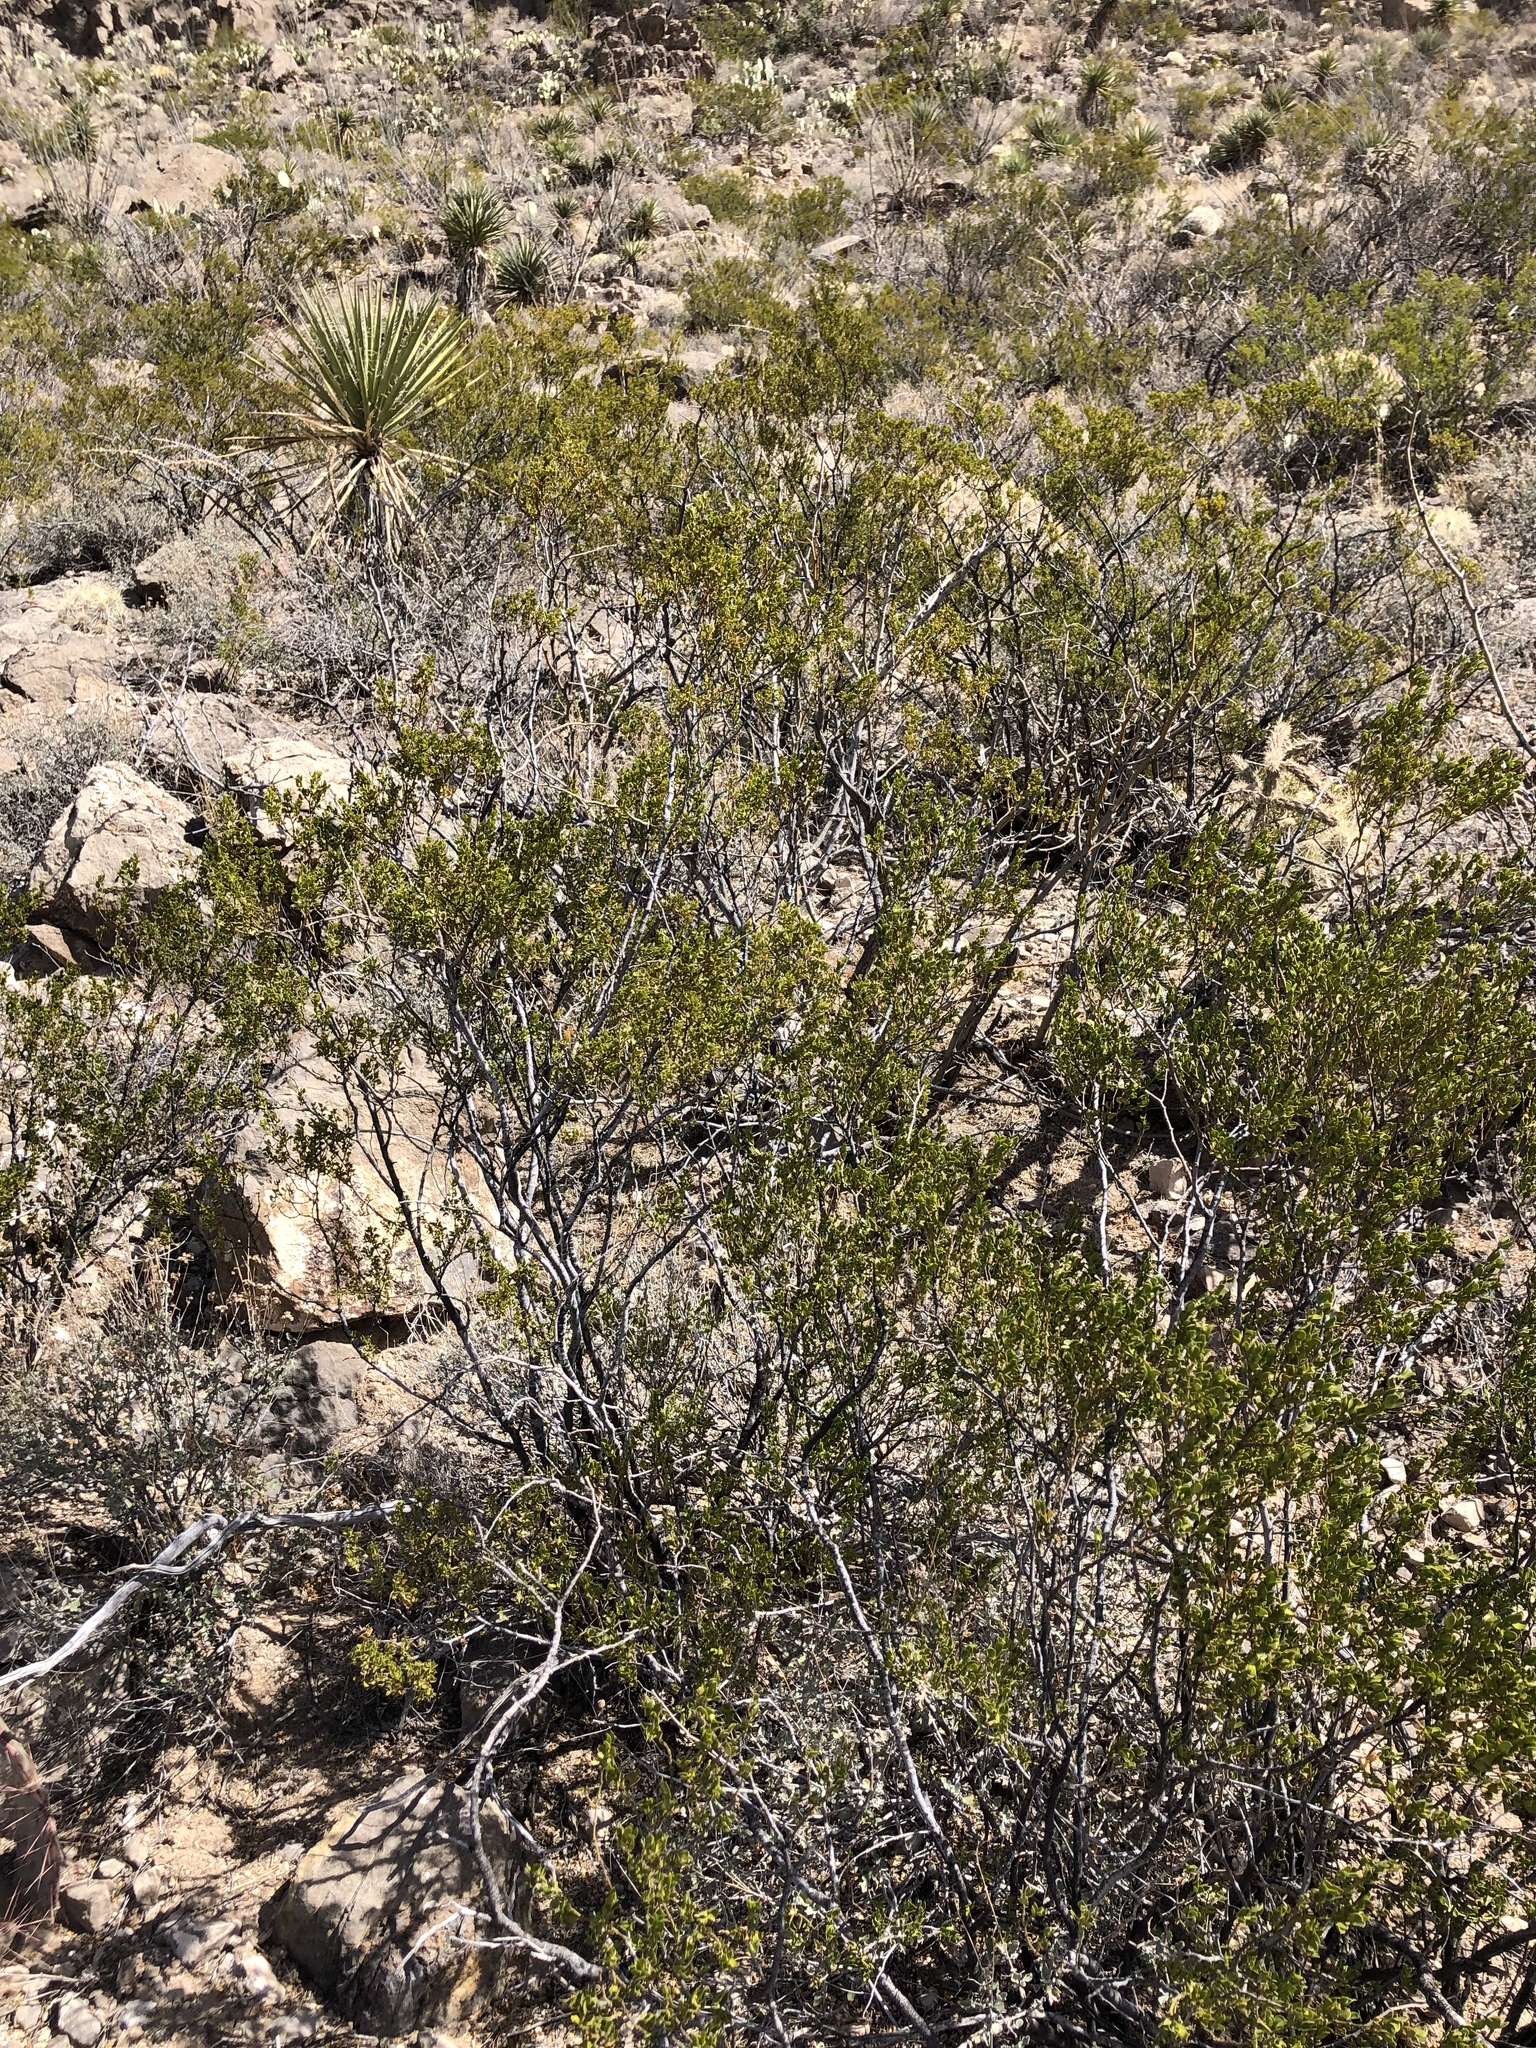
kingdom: Plantae
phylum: Tracheophyta
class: Magnoliopsida
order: Zygophyllales
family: Zygophyllaceae
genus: Larrea
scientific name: Larrea tridentata
